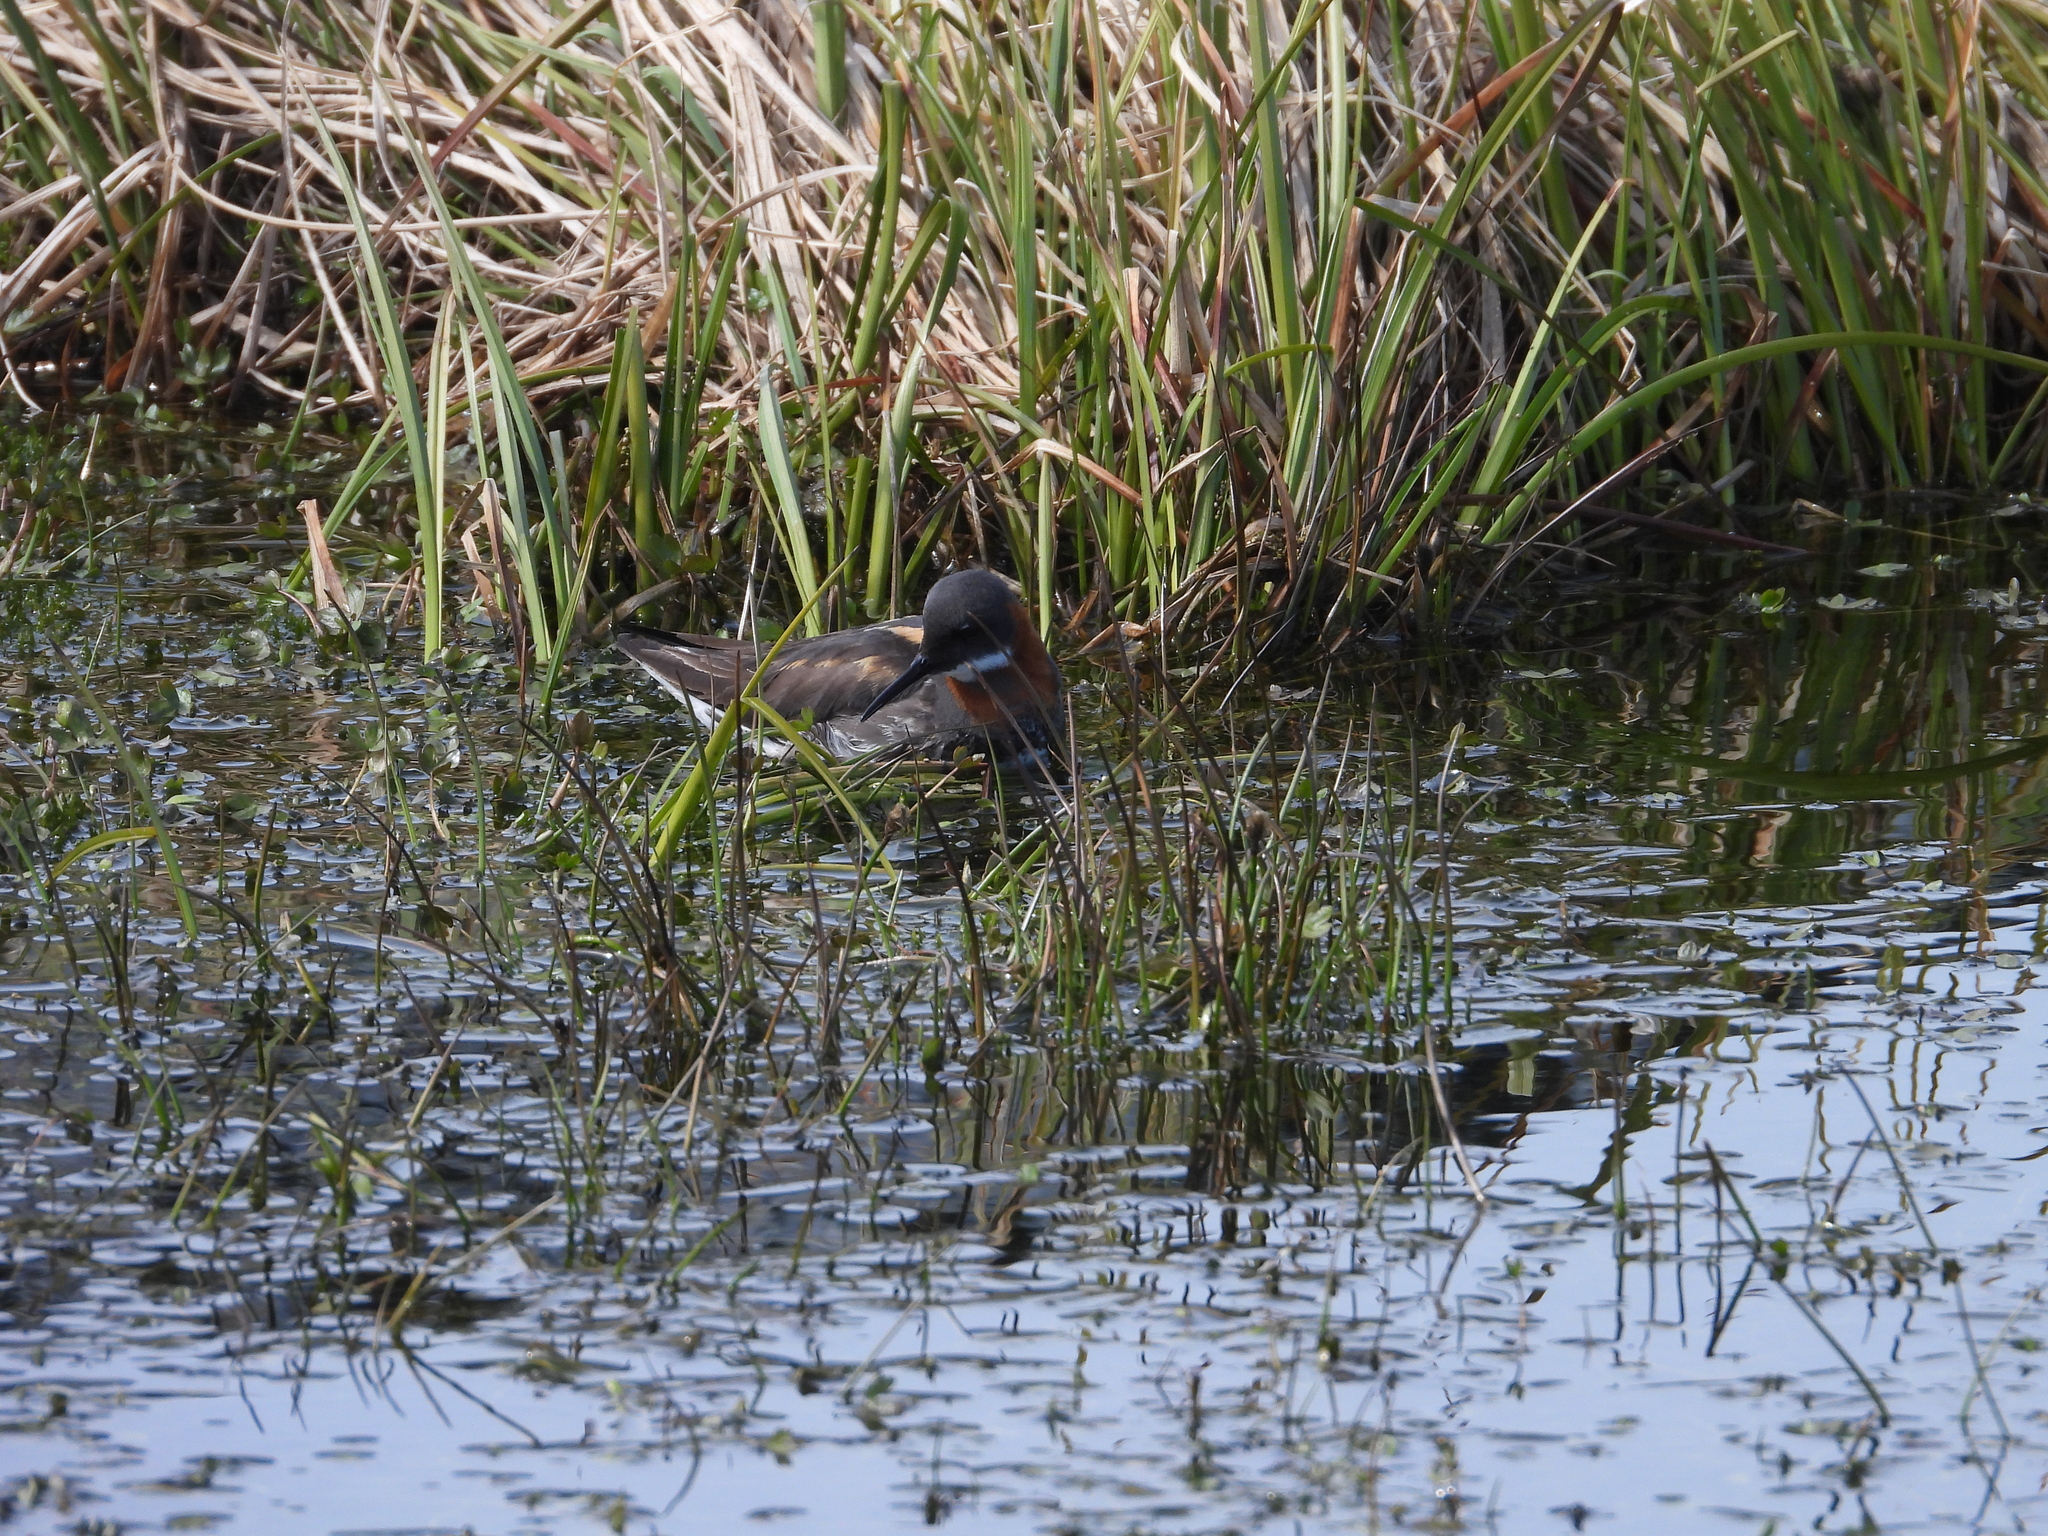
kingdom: Animalia
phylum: Chordata
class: Aves
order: Charadriiformes
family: Scolopacidae
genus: Phalaropus
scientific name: Phalaropus lobatus
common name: Red-necked phalarope
